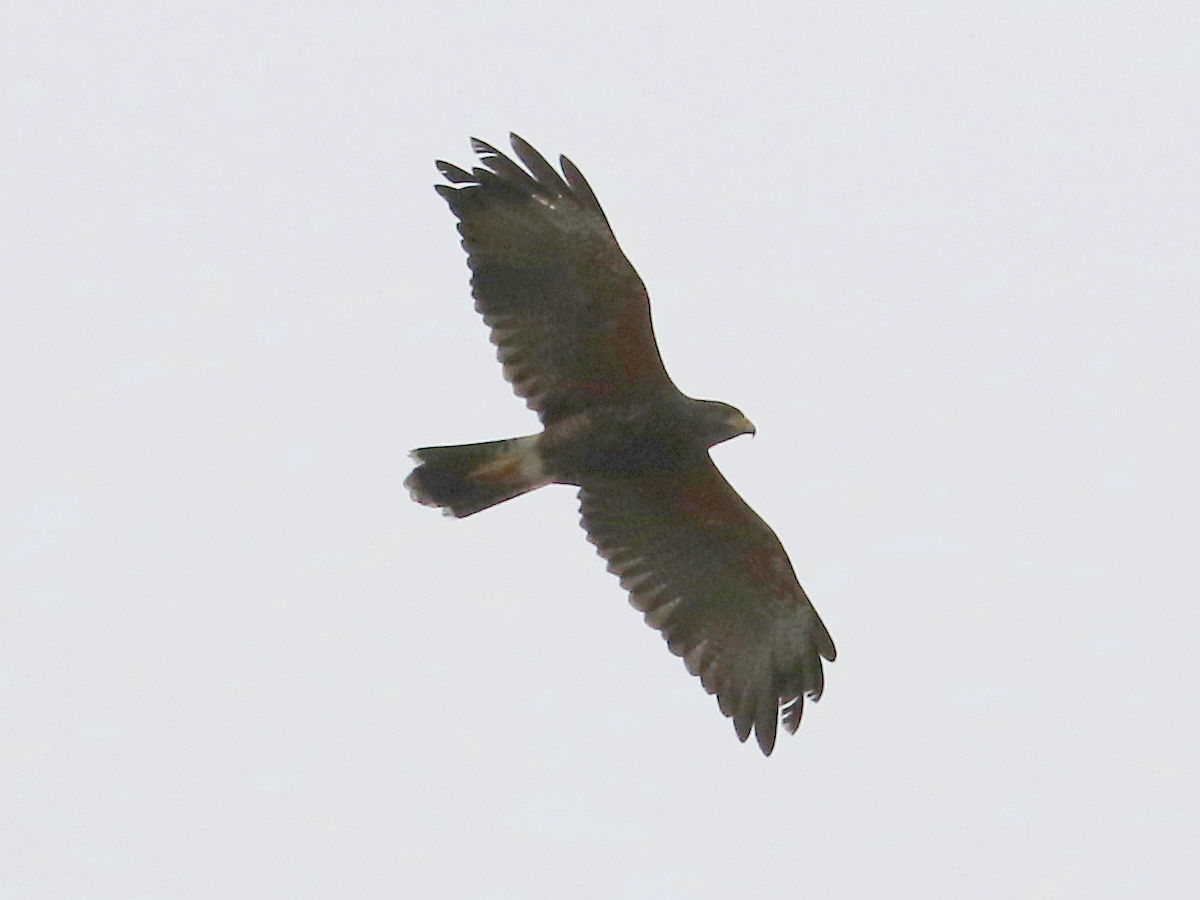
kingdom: Animalia
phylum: Chordata
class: Aves
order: Accipitriformes
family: Accipitridae
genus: Parabuteo
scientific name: Parabuteo unicinctus
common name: Harris's hawk
